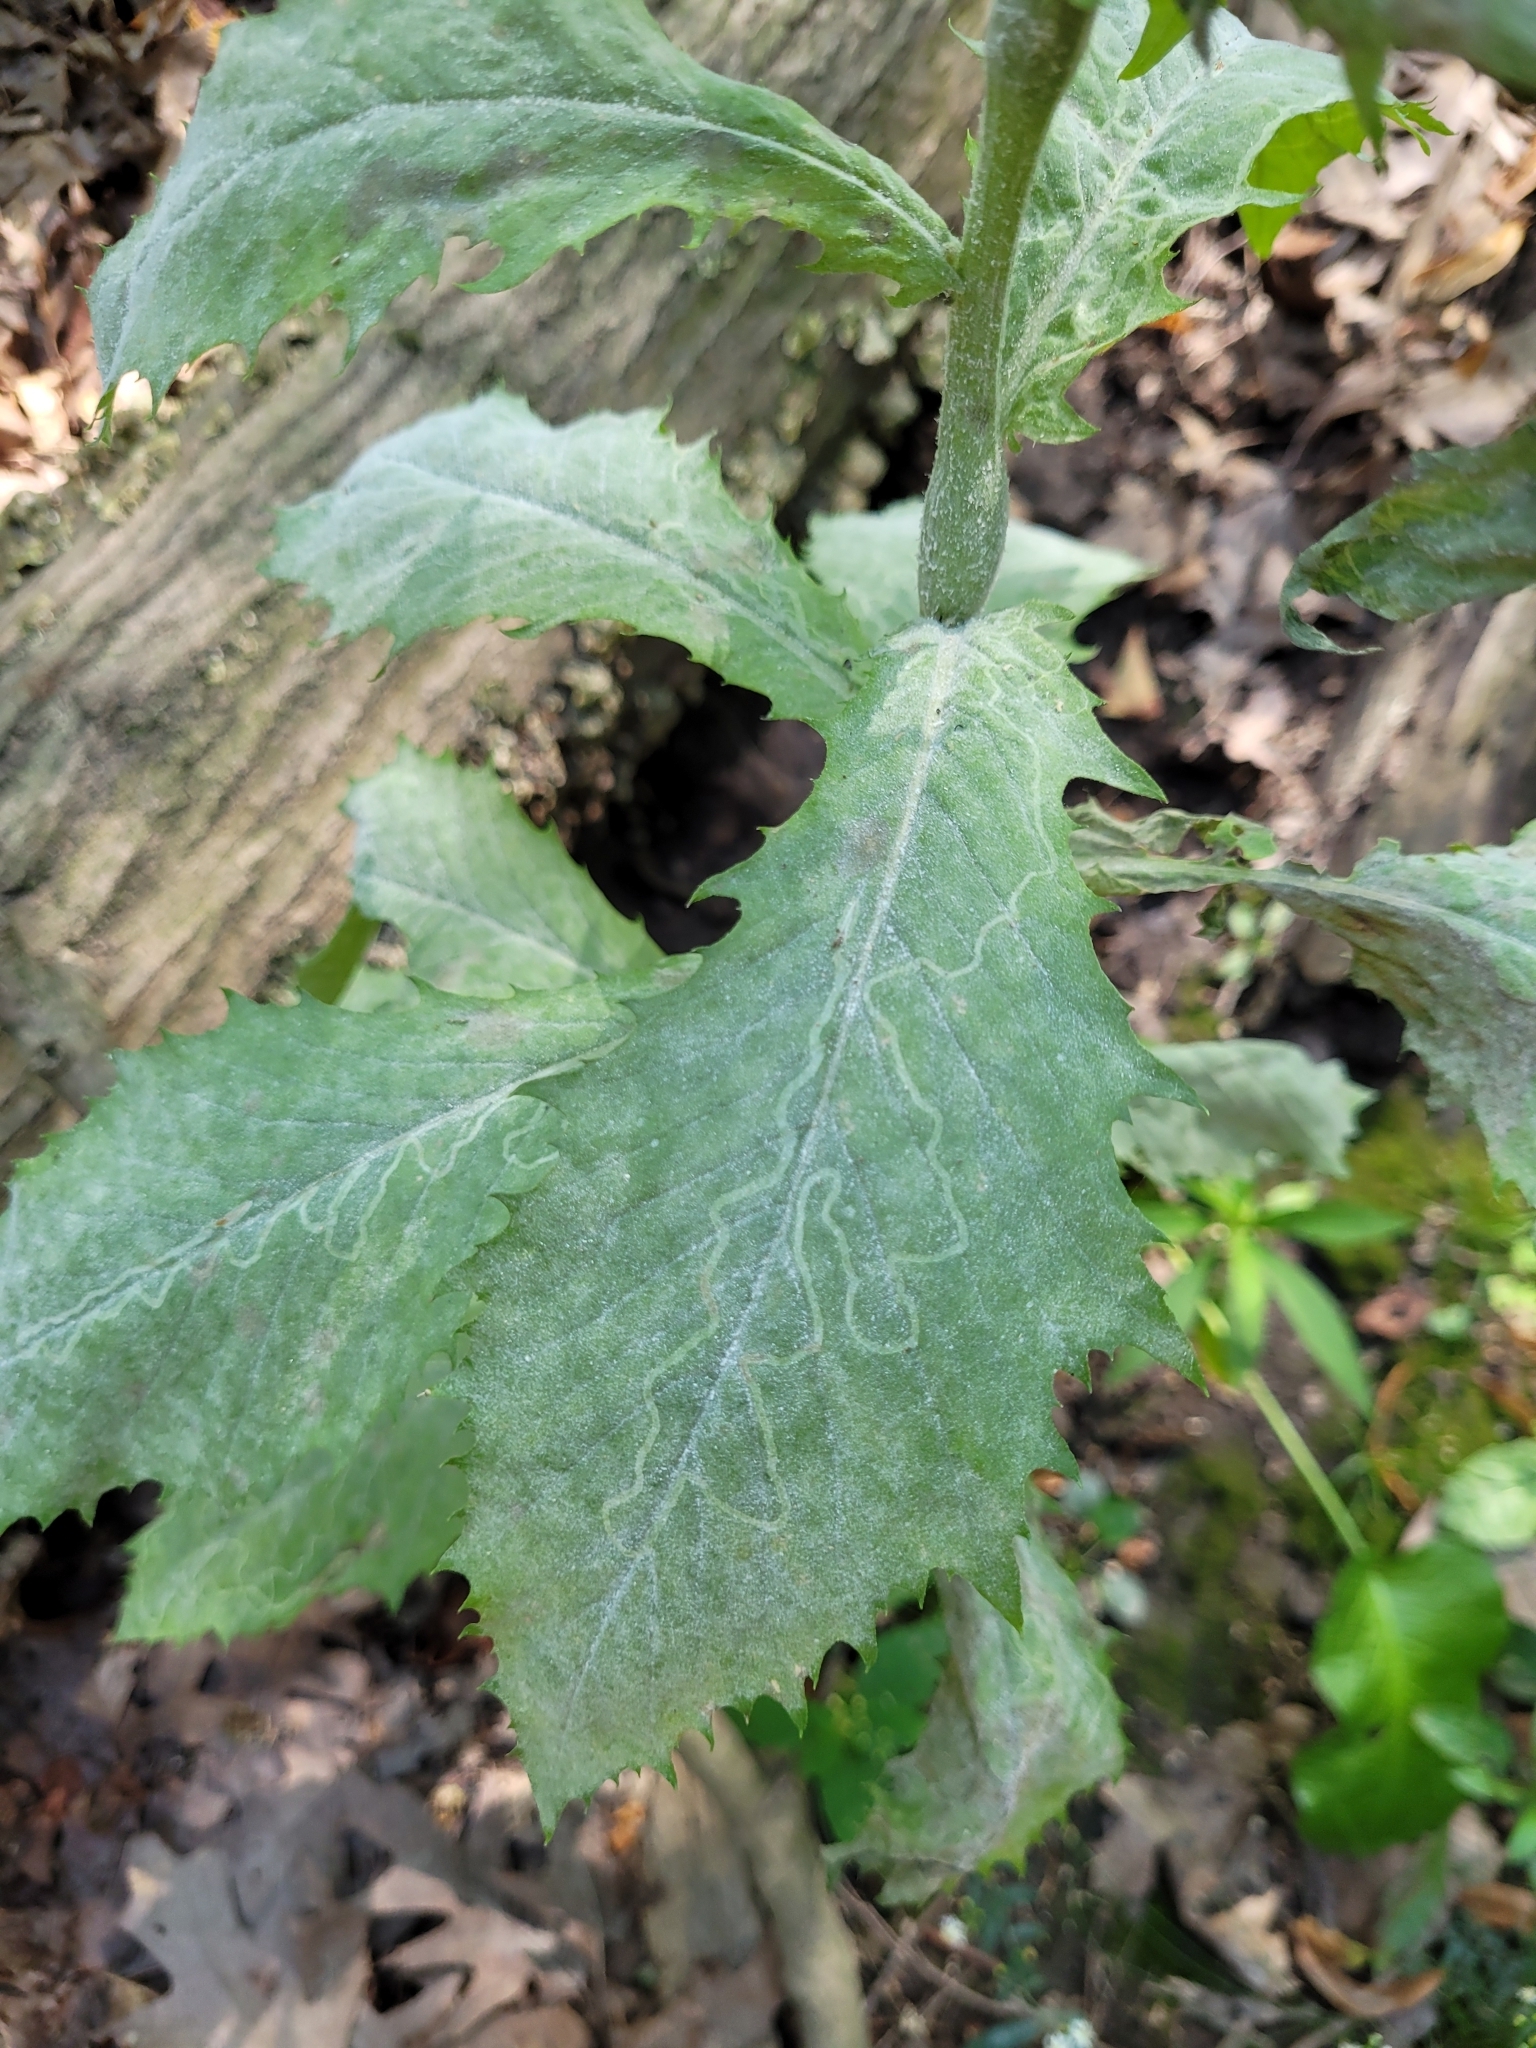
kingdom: Animalia
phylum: Arthropoda
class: Insecta
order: Lepidoptera
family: Gracillariidae
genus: Phyllocnistis
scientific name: Phyllocnistis insignis
